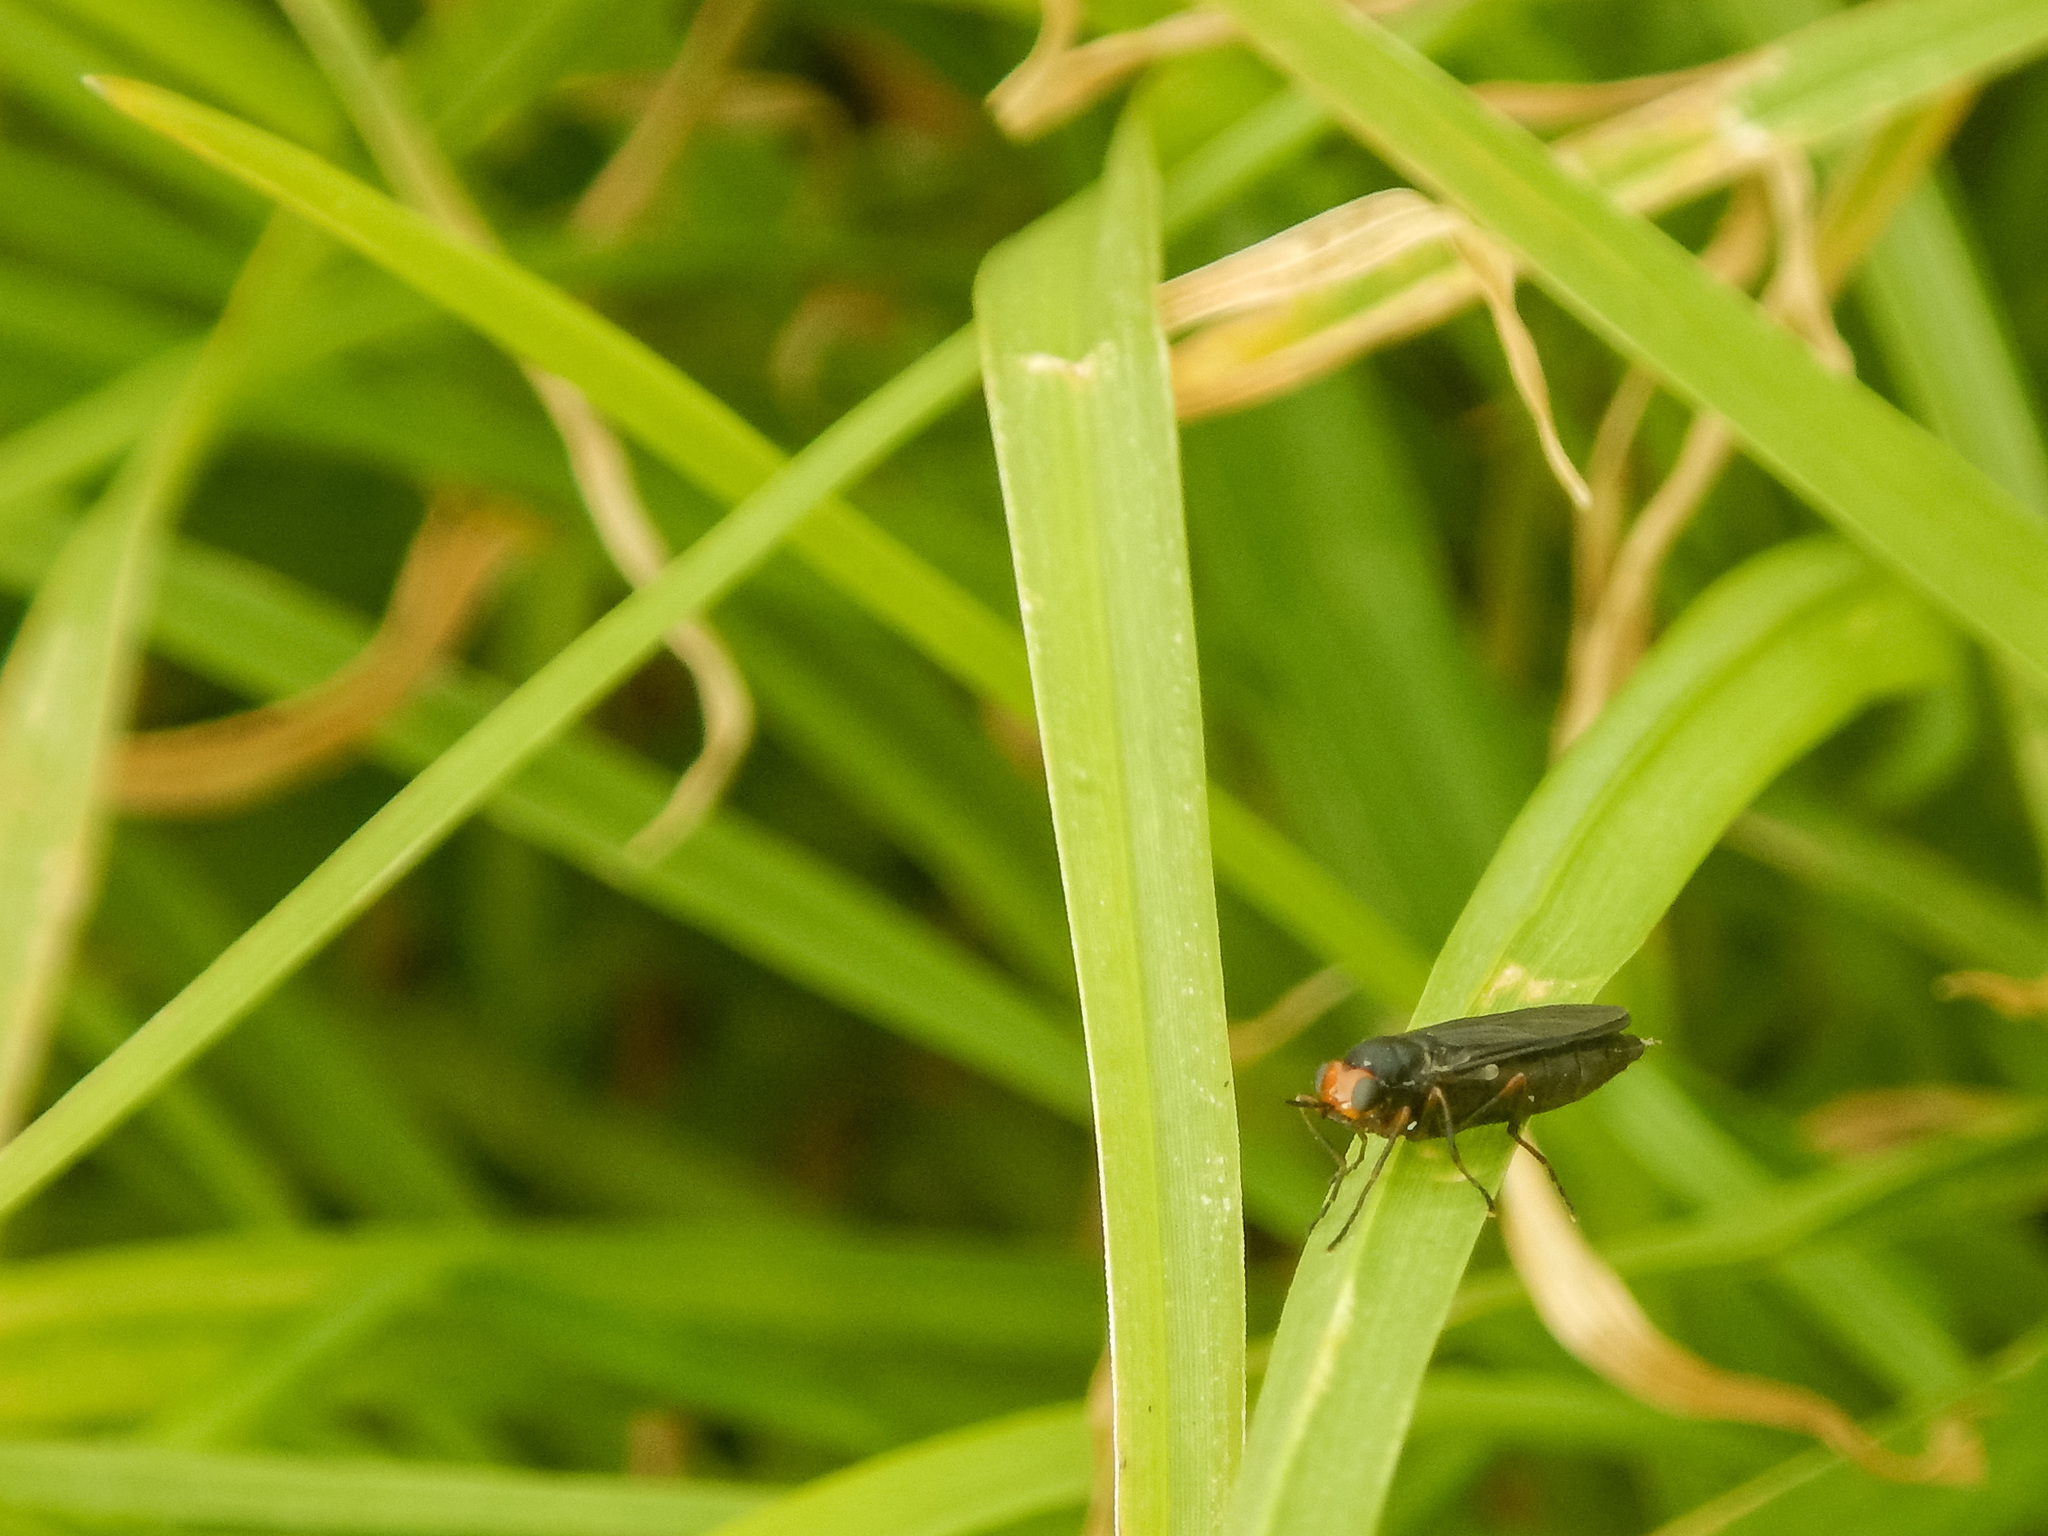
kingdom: Animalia
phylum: Arthropoda
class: Insecta
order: Diptera
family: Stratiomyidae
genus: Inopus
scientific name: Inopus rubriceps
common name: Soldier fly
